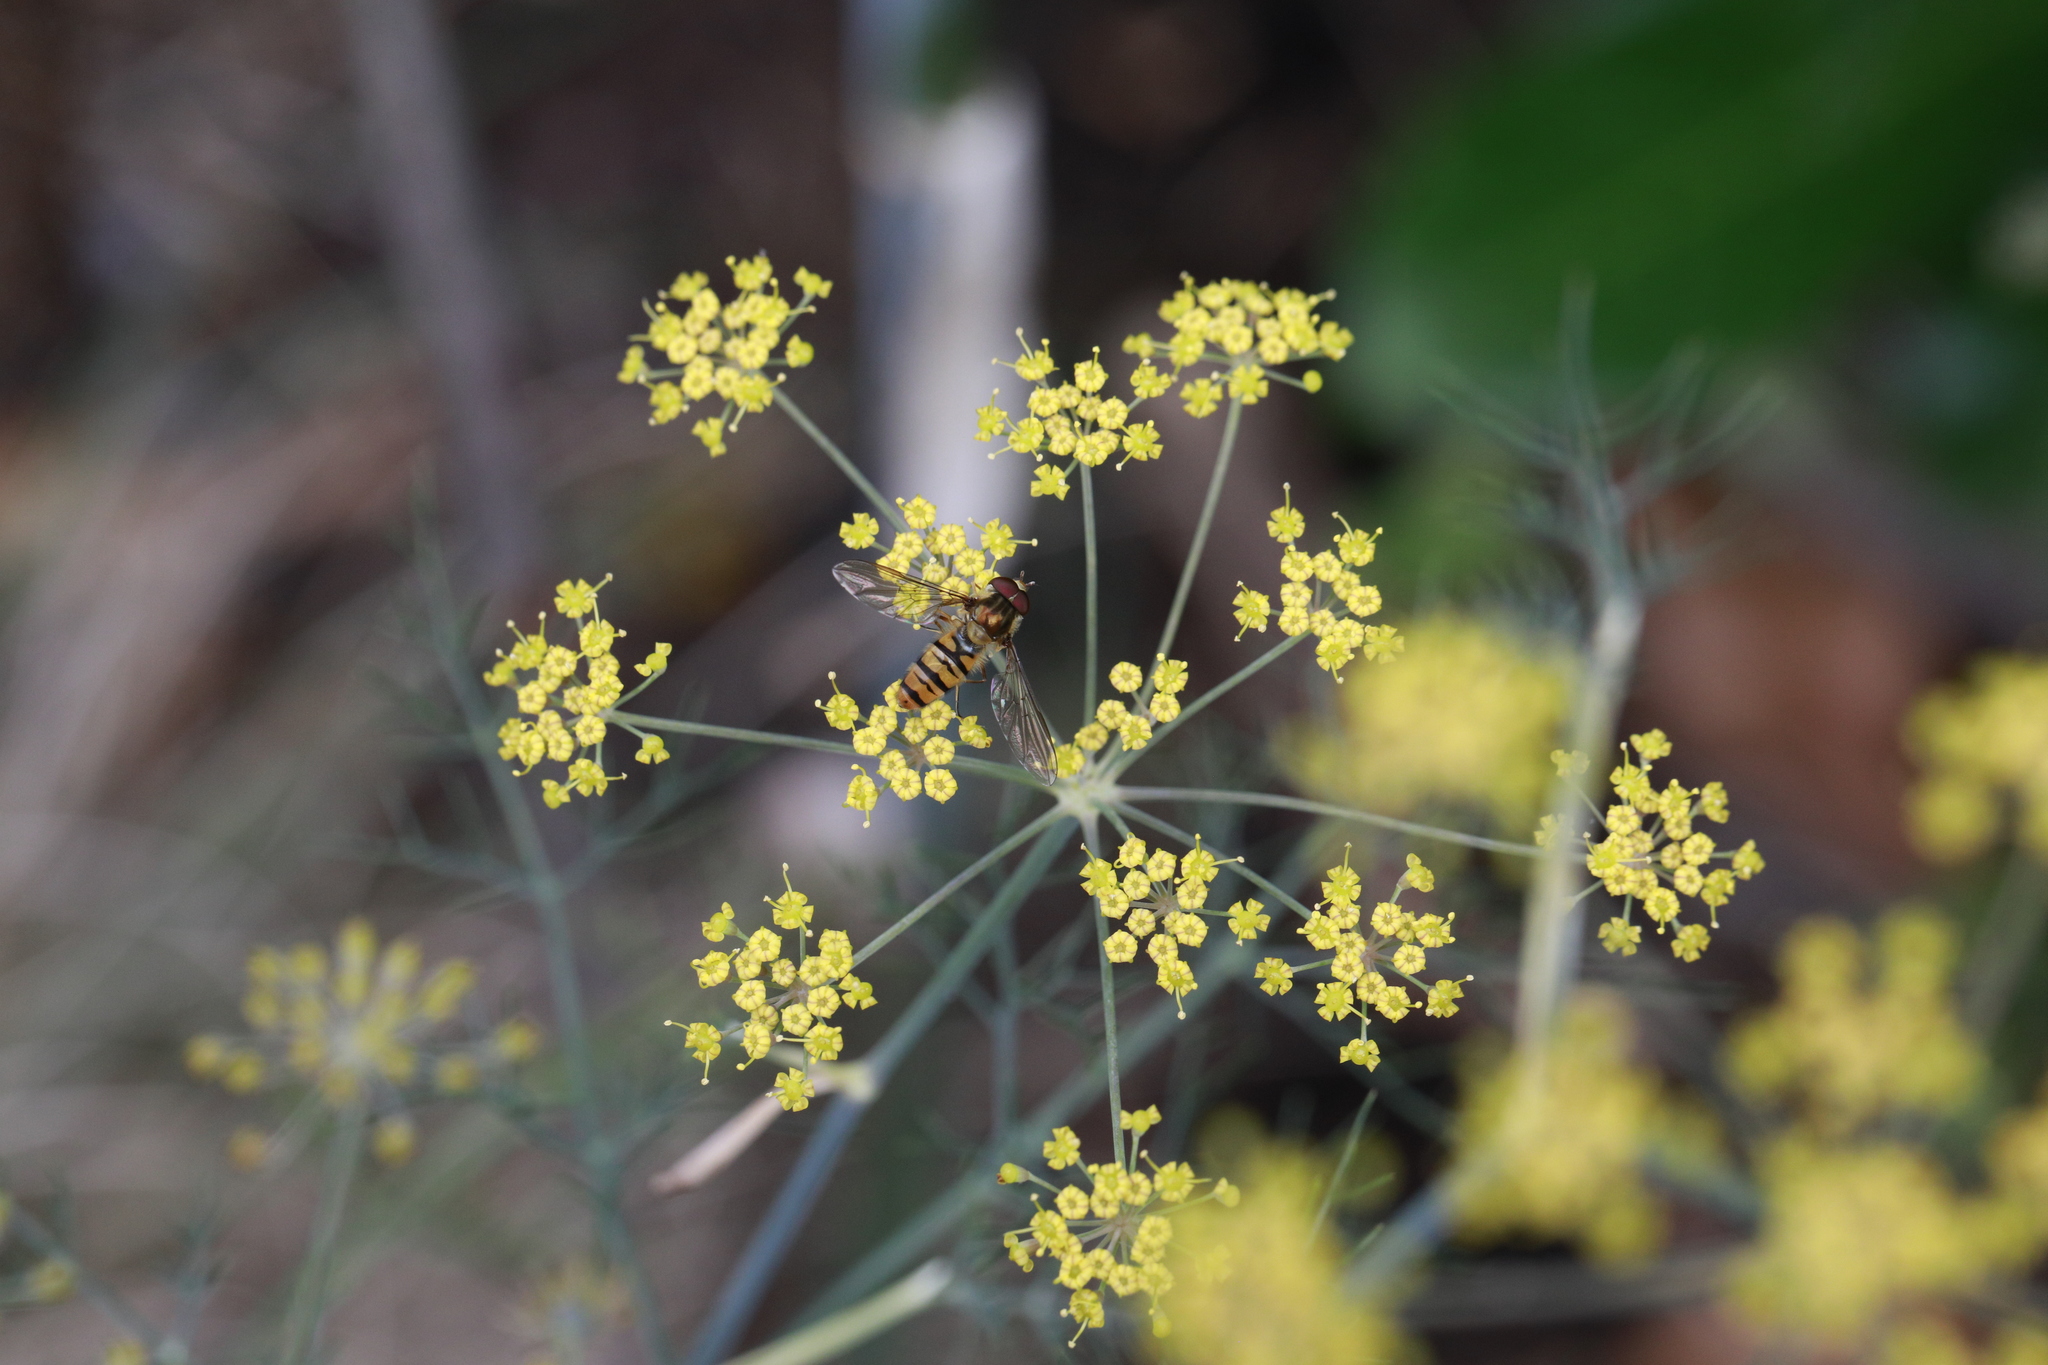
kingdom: Animalia
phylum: Arthropoda
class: Insecta
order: Diptera
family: Syrphidae
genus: Episyrphus
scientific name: Episyrphus balteatus
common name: Marmalade hoverfly
